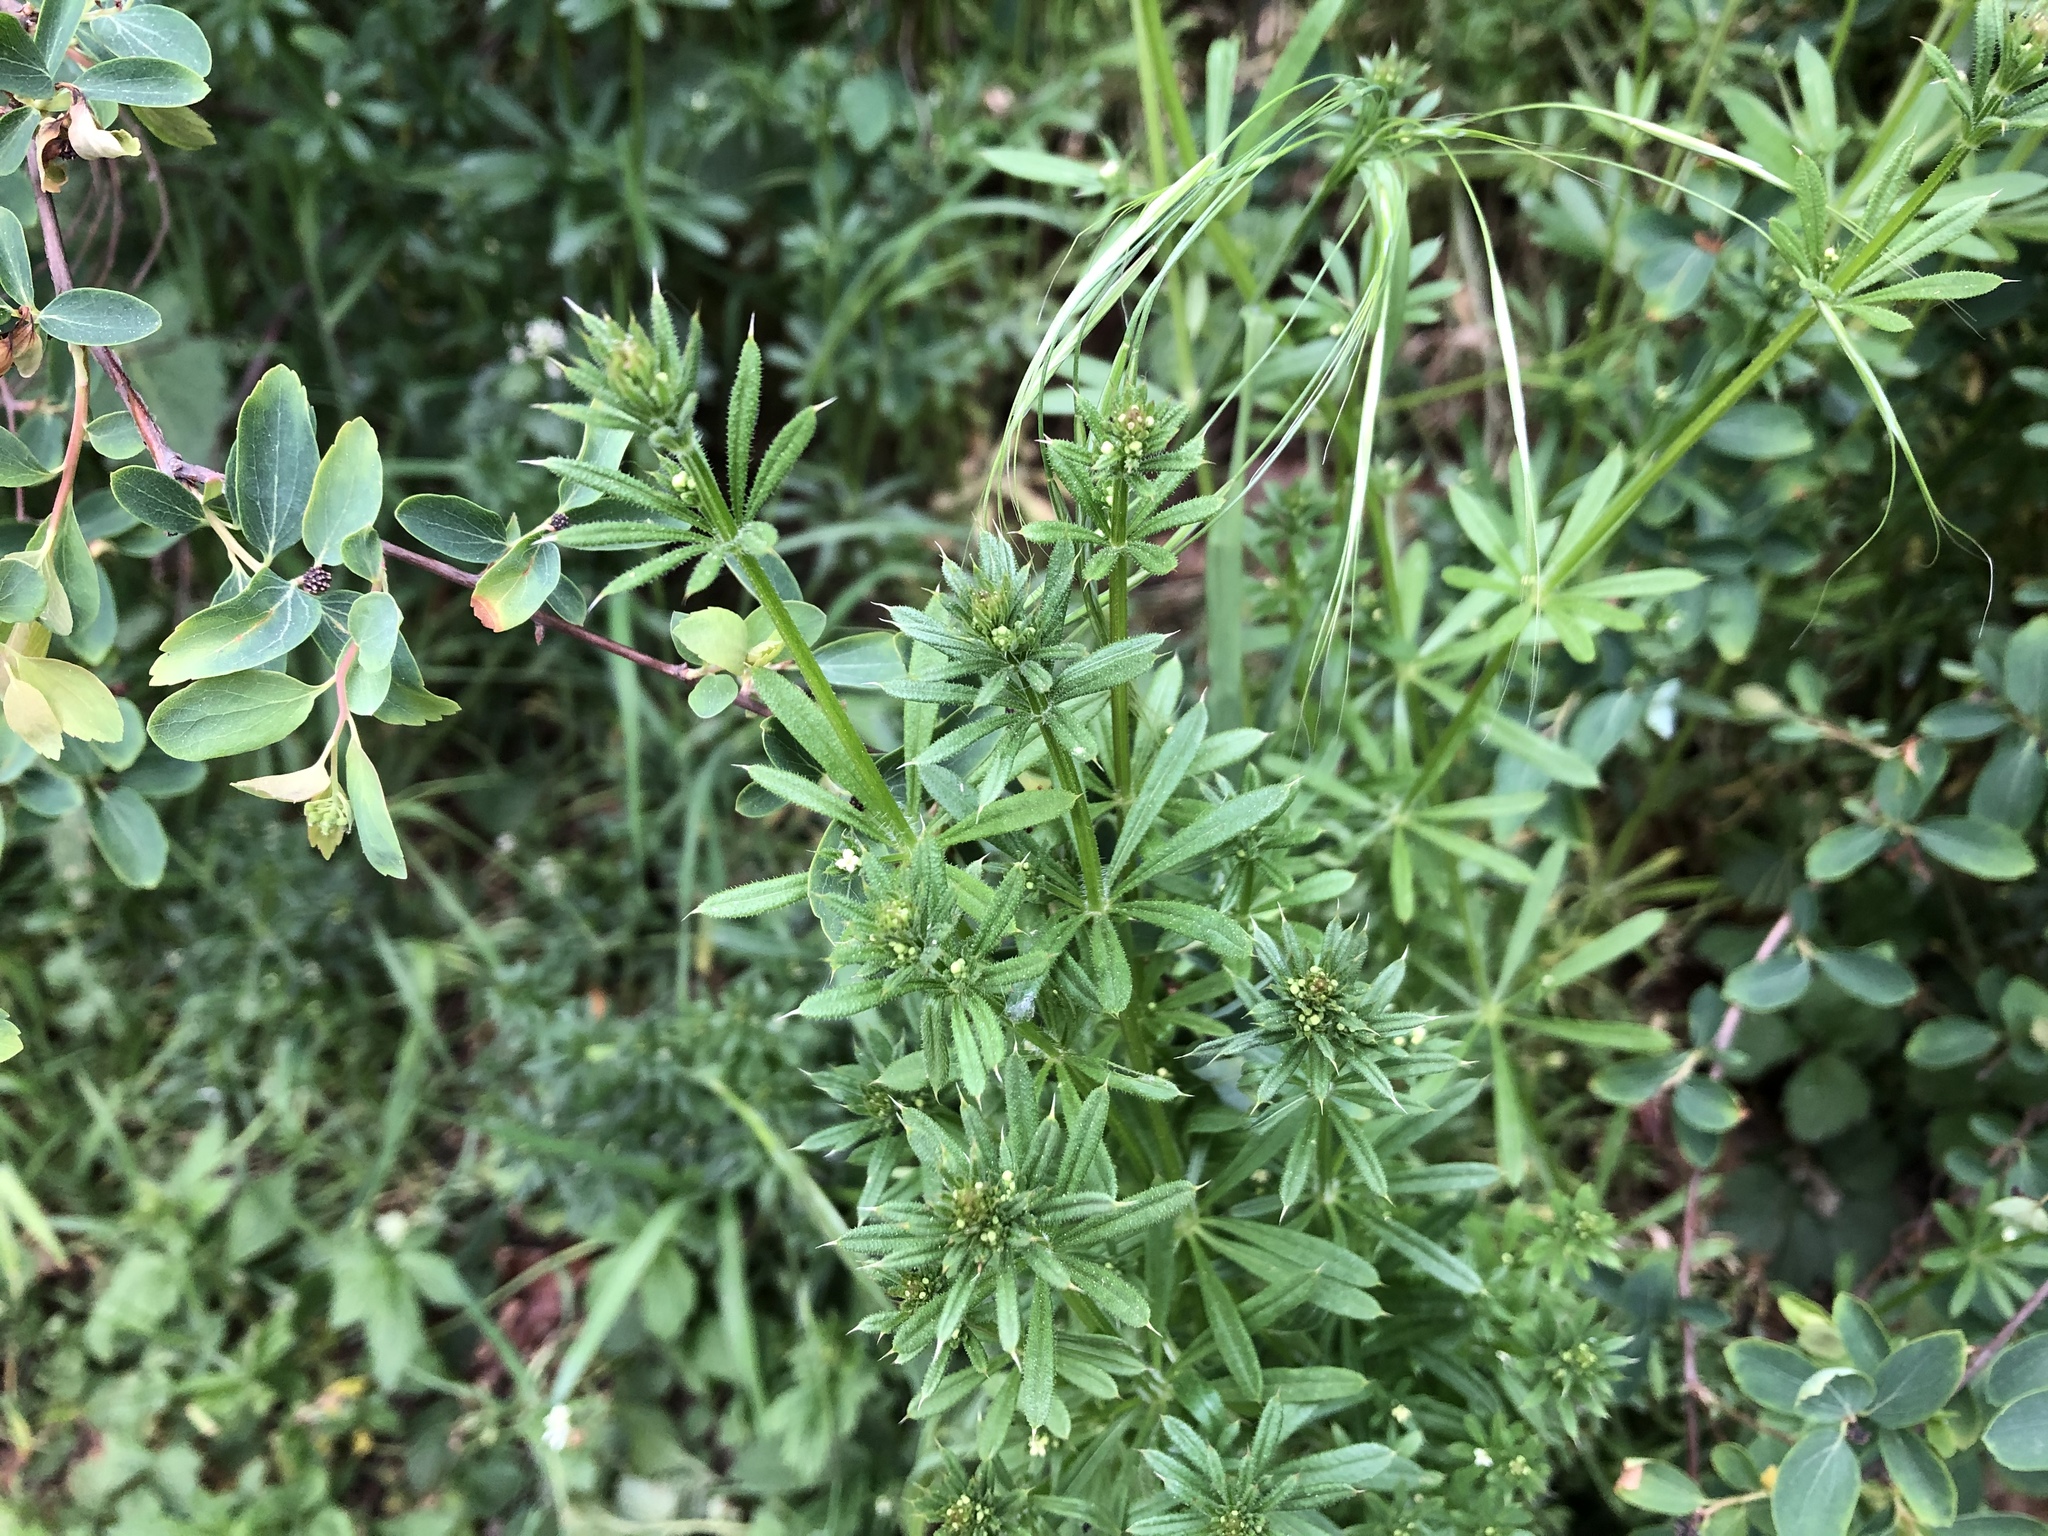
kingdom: Plantae
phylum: Tracheophyta
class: Magnoliopsida
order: Gentianales
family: Rubiaceae
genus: Galium
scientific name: Galium aparine
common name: Cleavers
